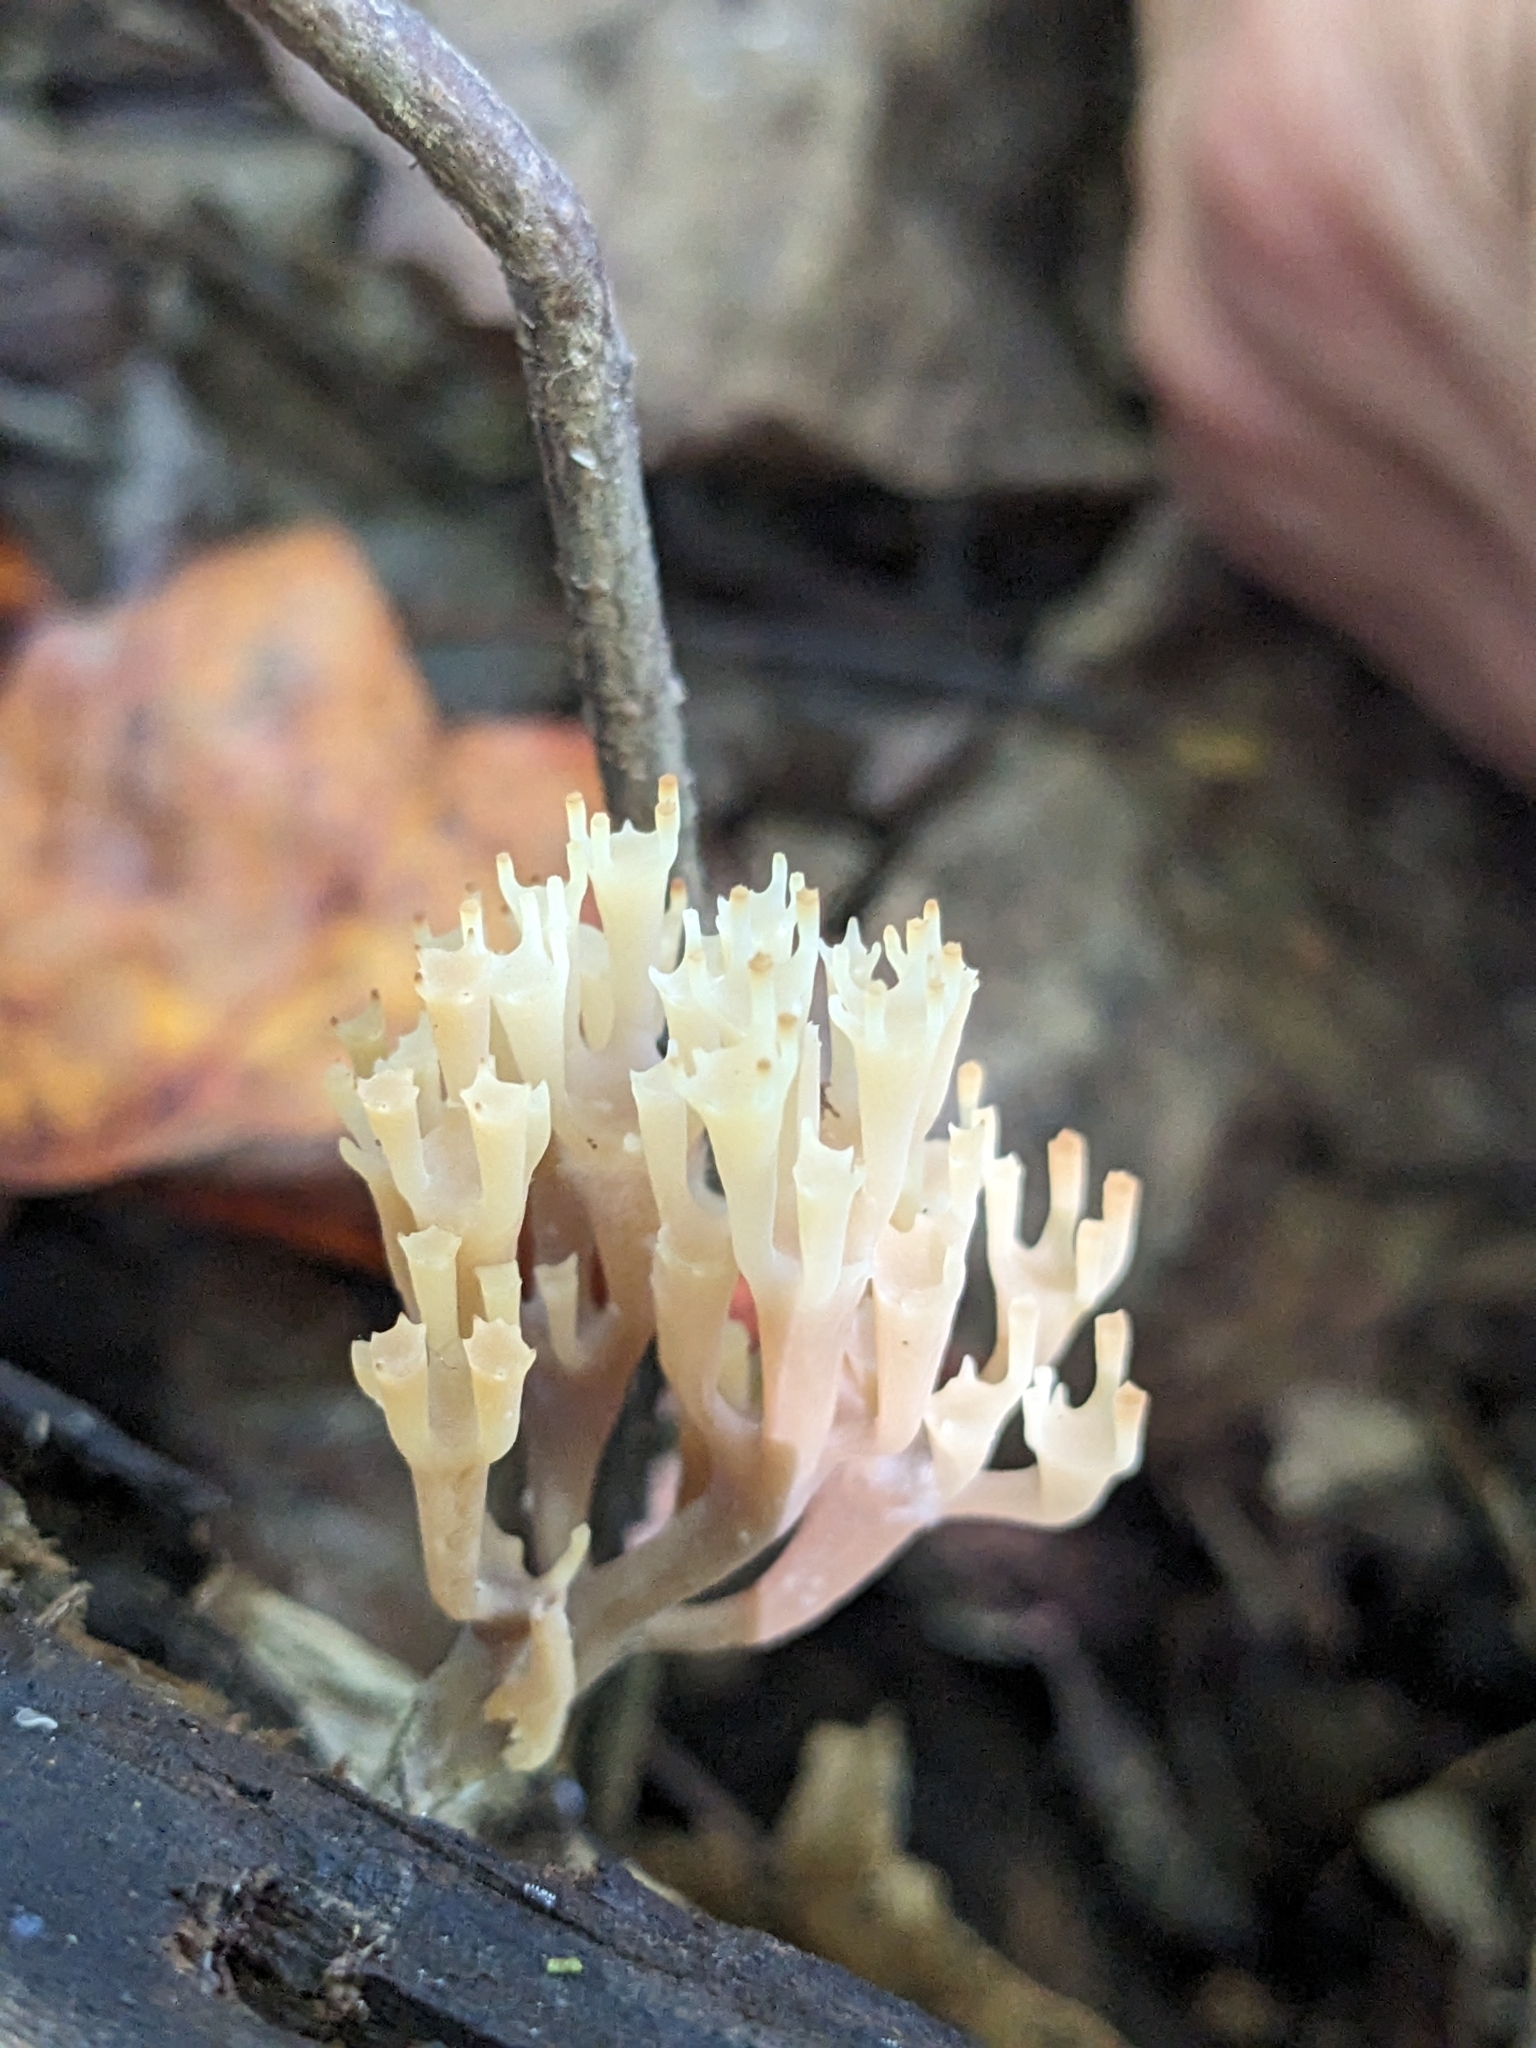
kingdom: Fungi
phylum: Basidiomycota
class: Agaricomycetes
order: Russulales
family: Auriscalpiaceae
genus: Artomyces
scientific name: Artomyces pyxidatus
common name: Crown-tipped coral fungus
